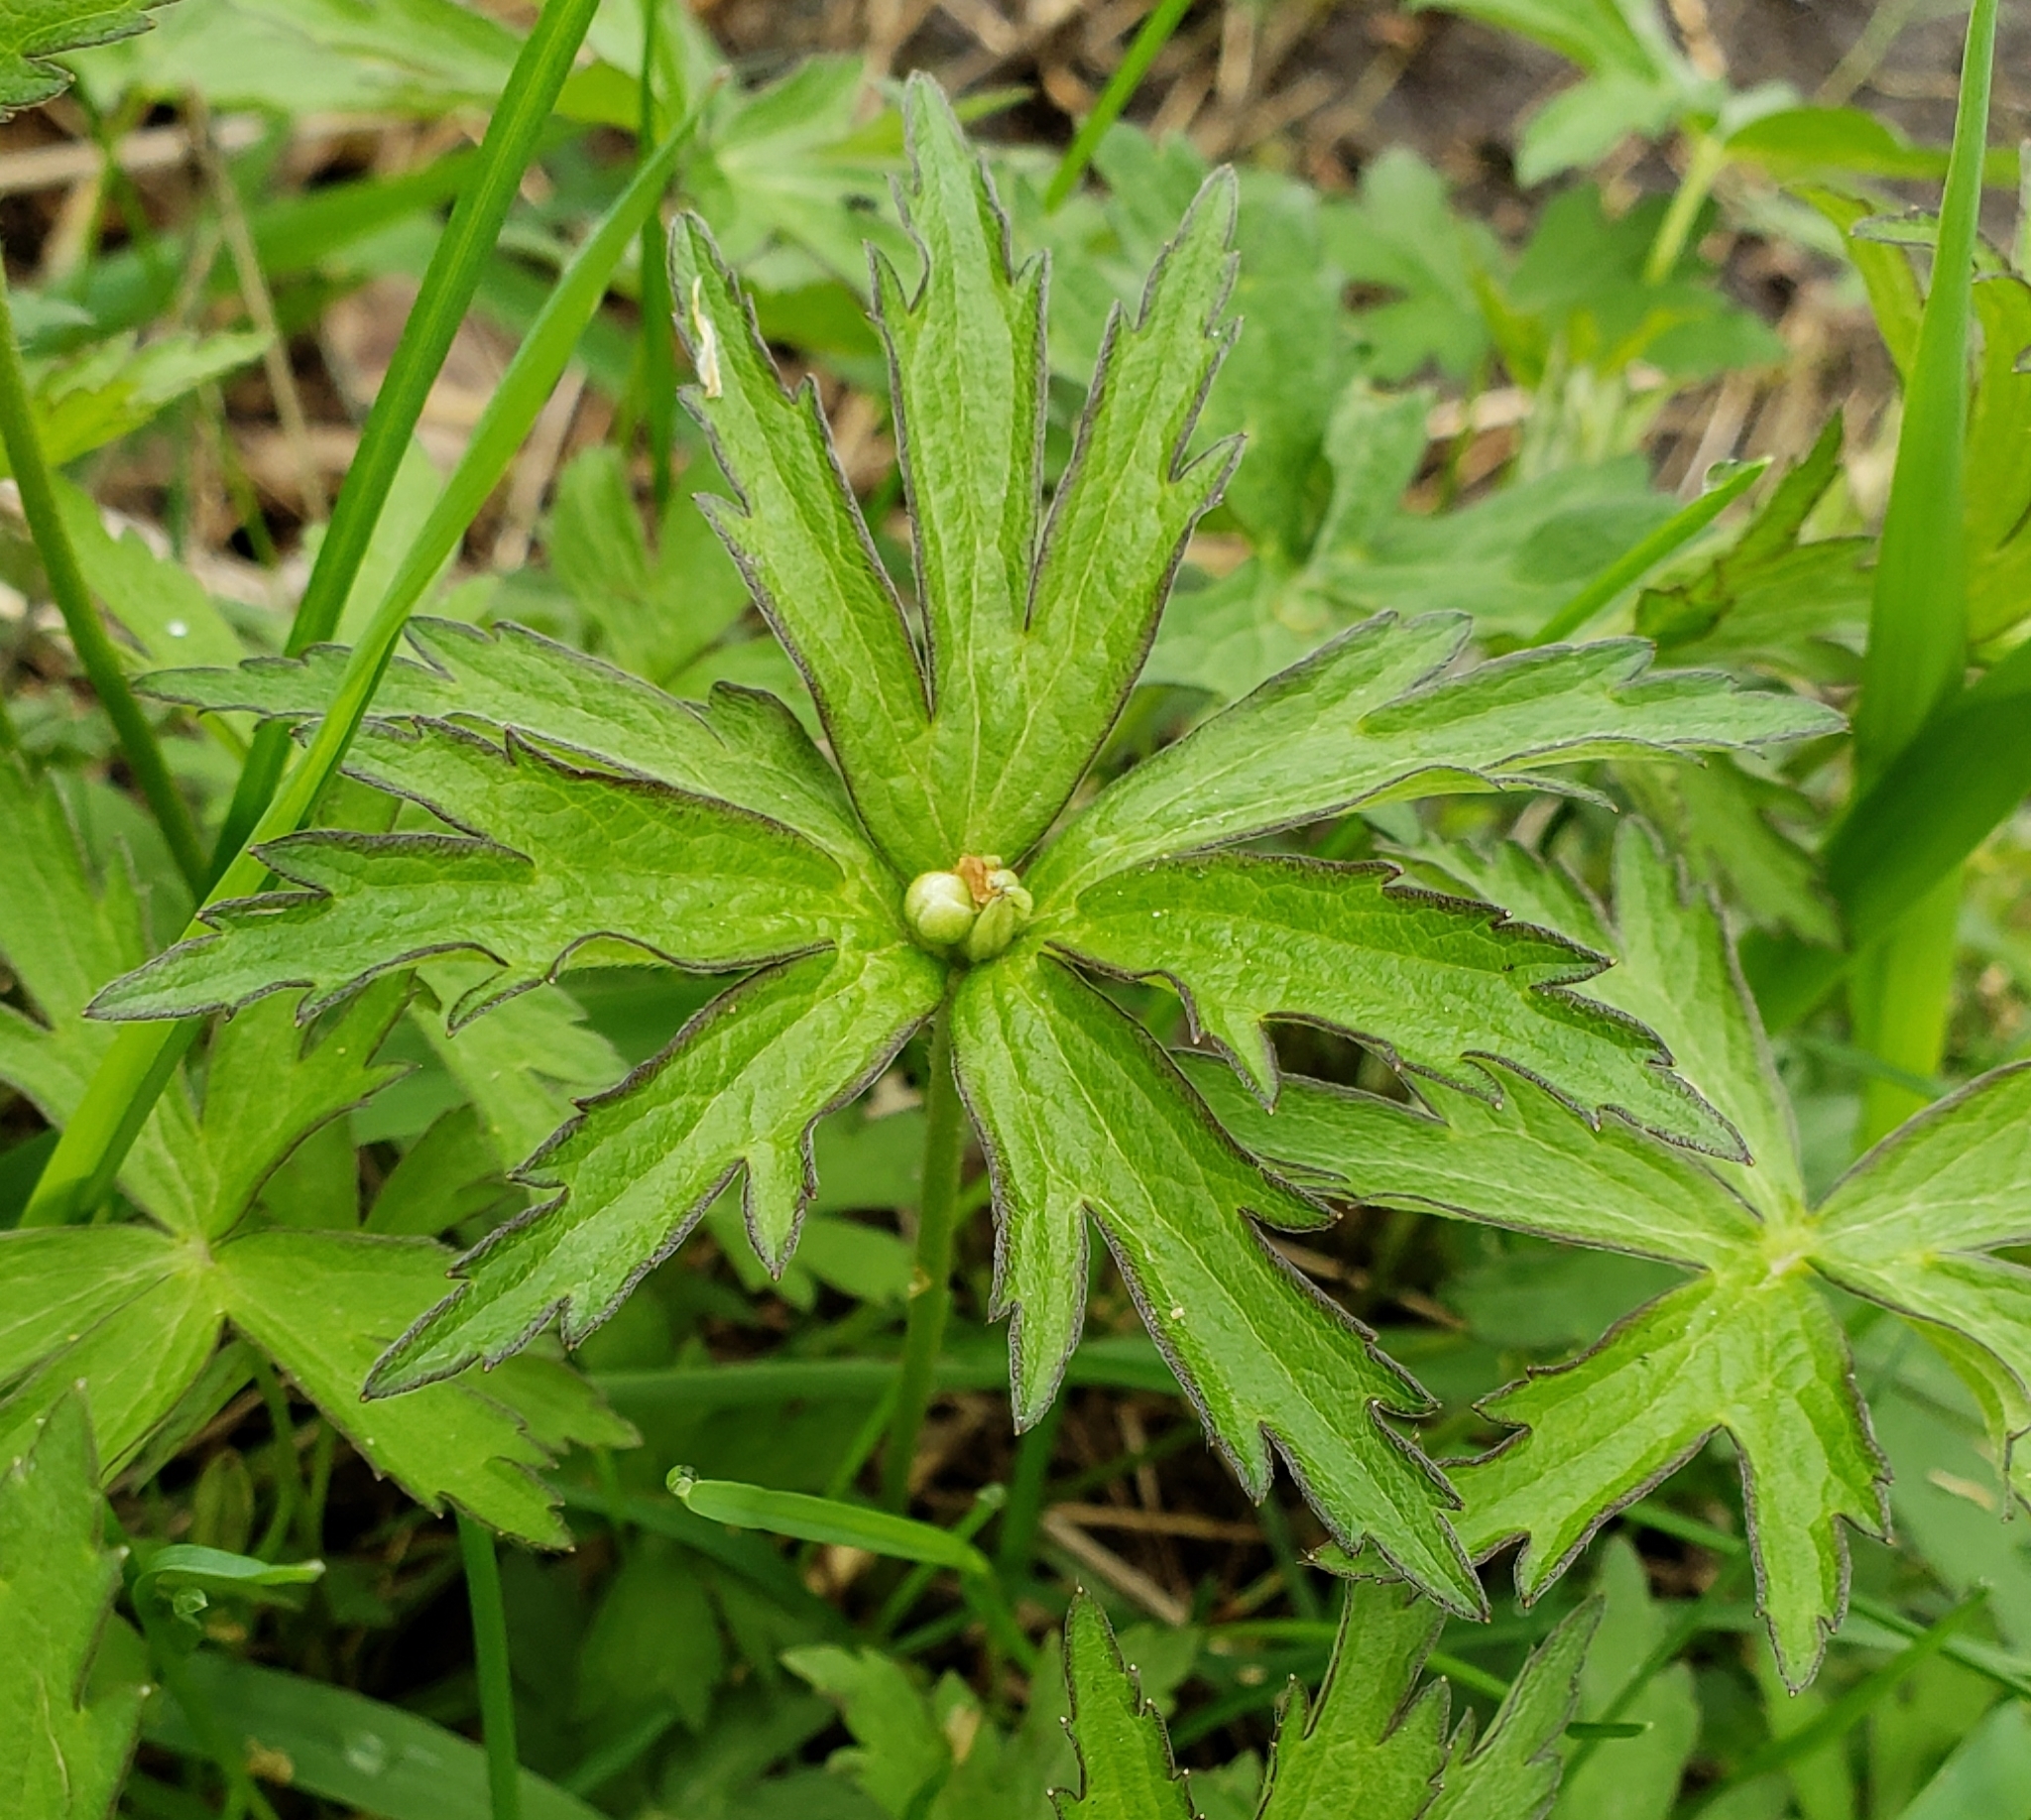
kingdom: Plantae
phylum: Tracheophyta
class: Magnoliopsida
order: Ranunculales
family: Ranunculaceae
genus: Anemonastrum
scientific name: Anemonastrum canadense
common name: Canada anemone
